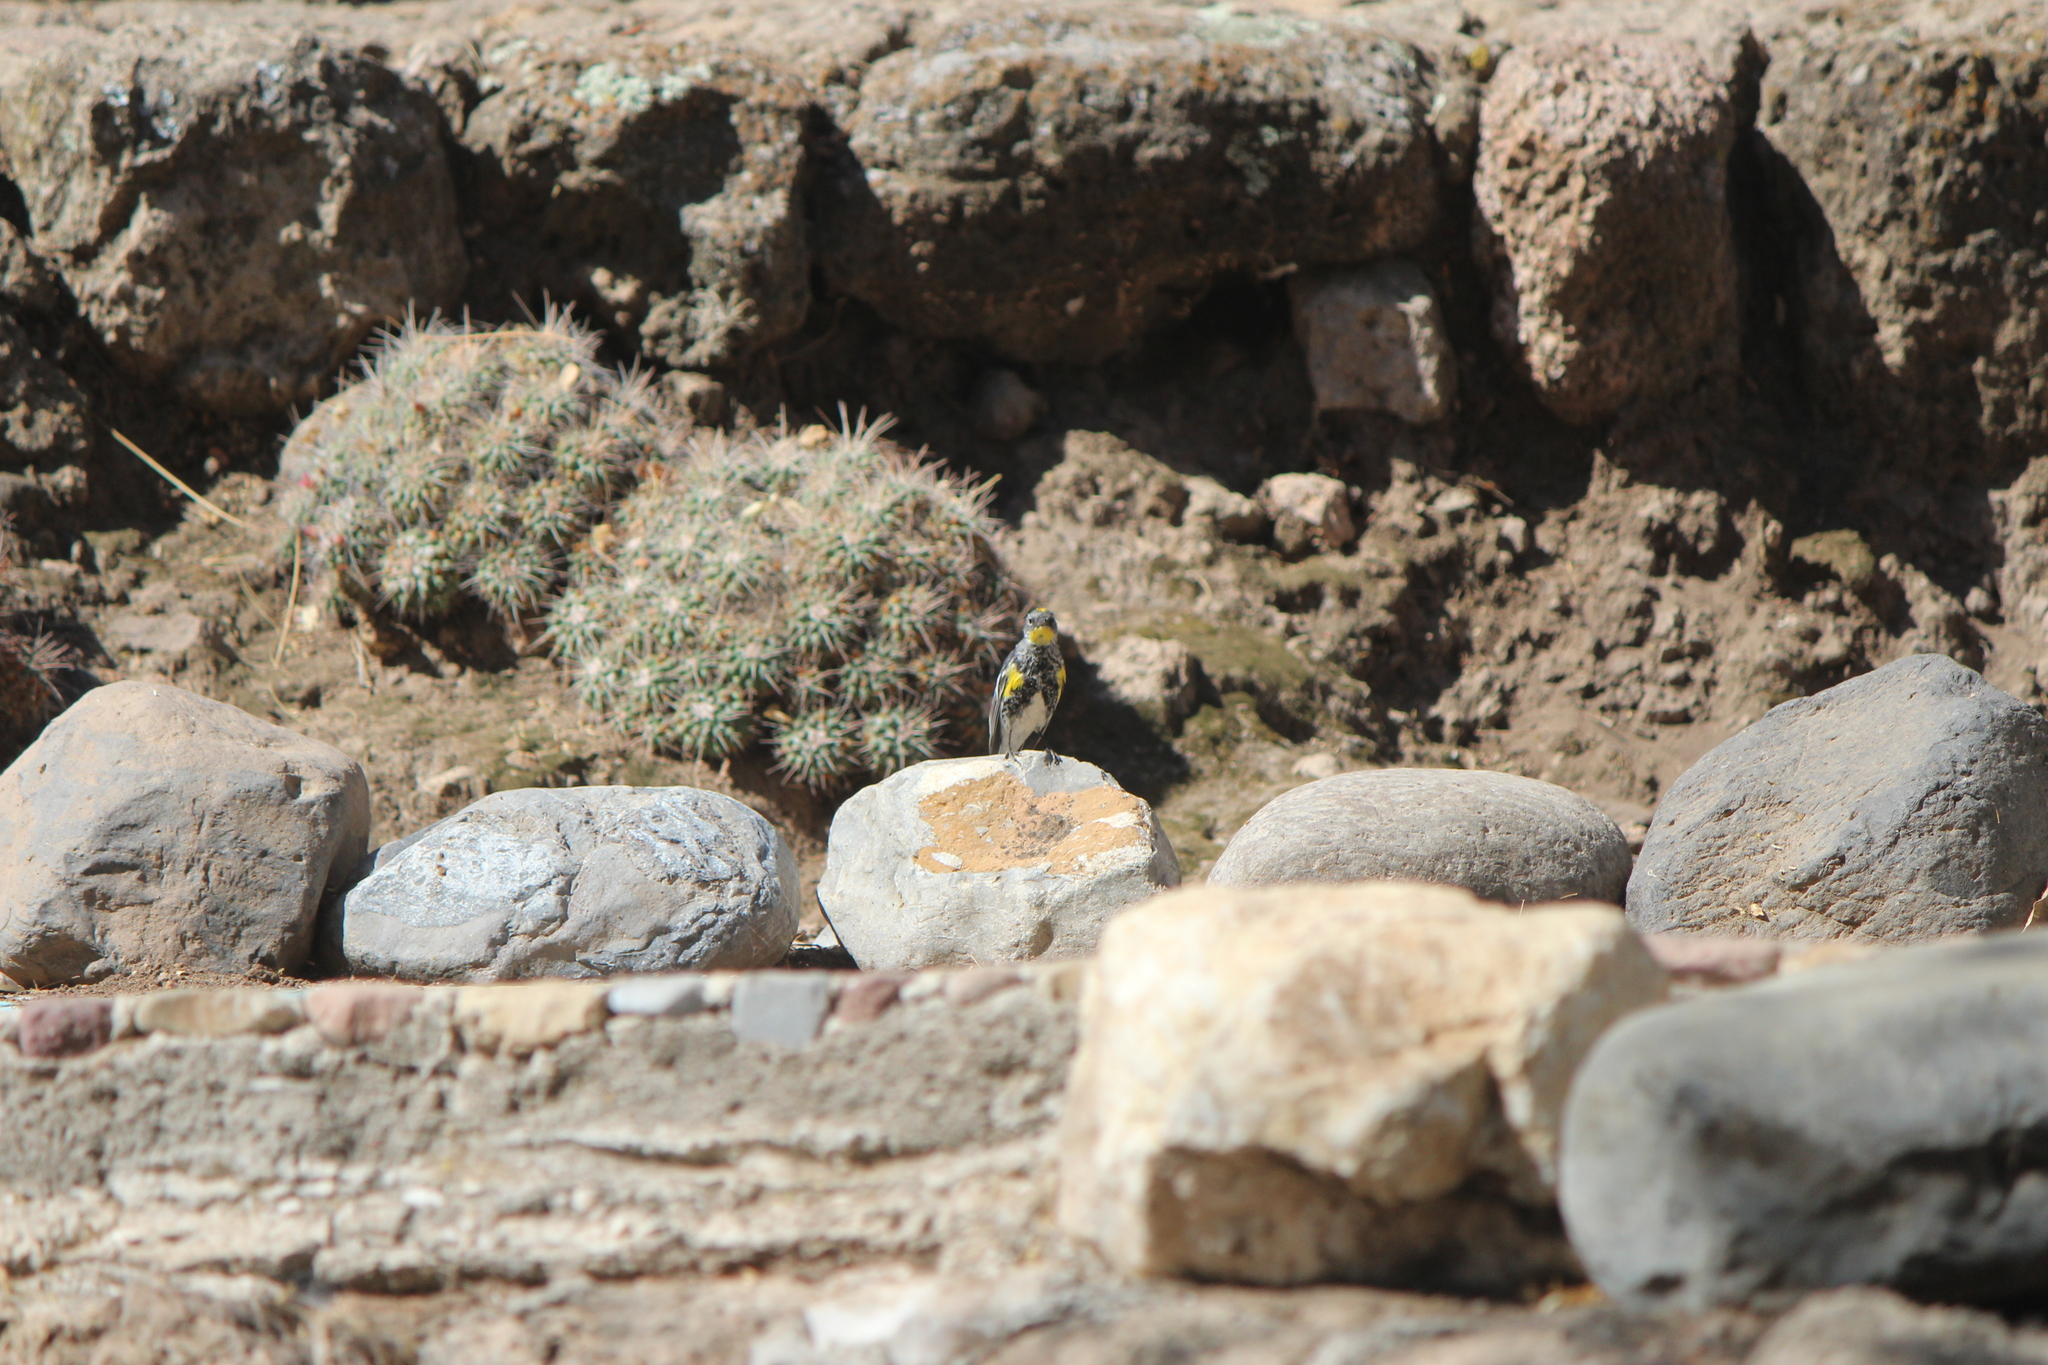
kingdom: Animalia
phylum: Chordata
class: Aves
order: Passeriformes
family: Parulidae
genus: Setophaga
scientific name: Setophaga auduboni
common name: Audubon's warbler
